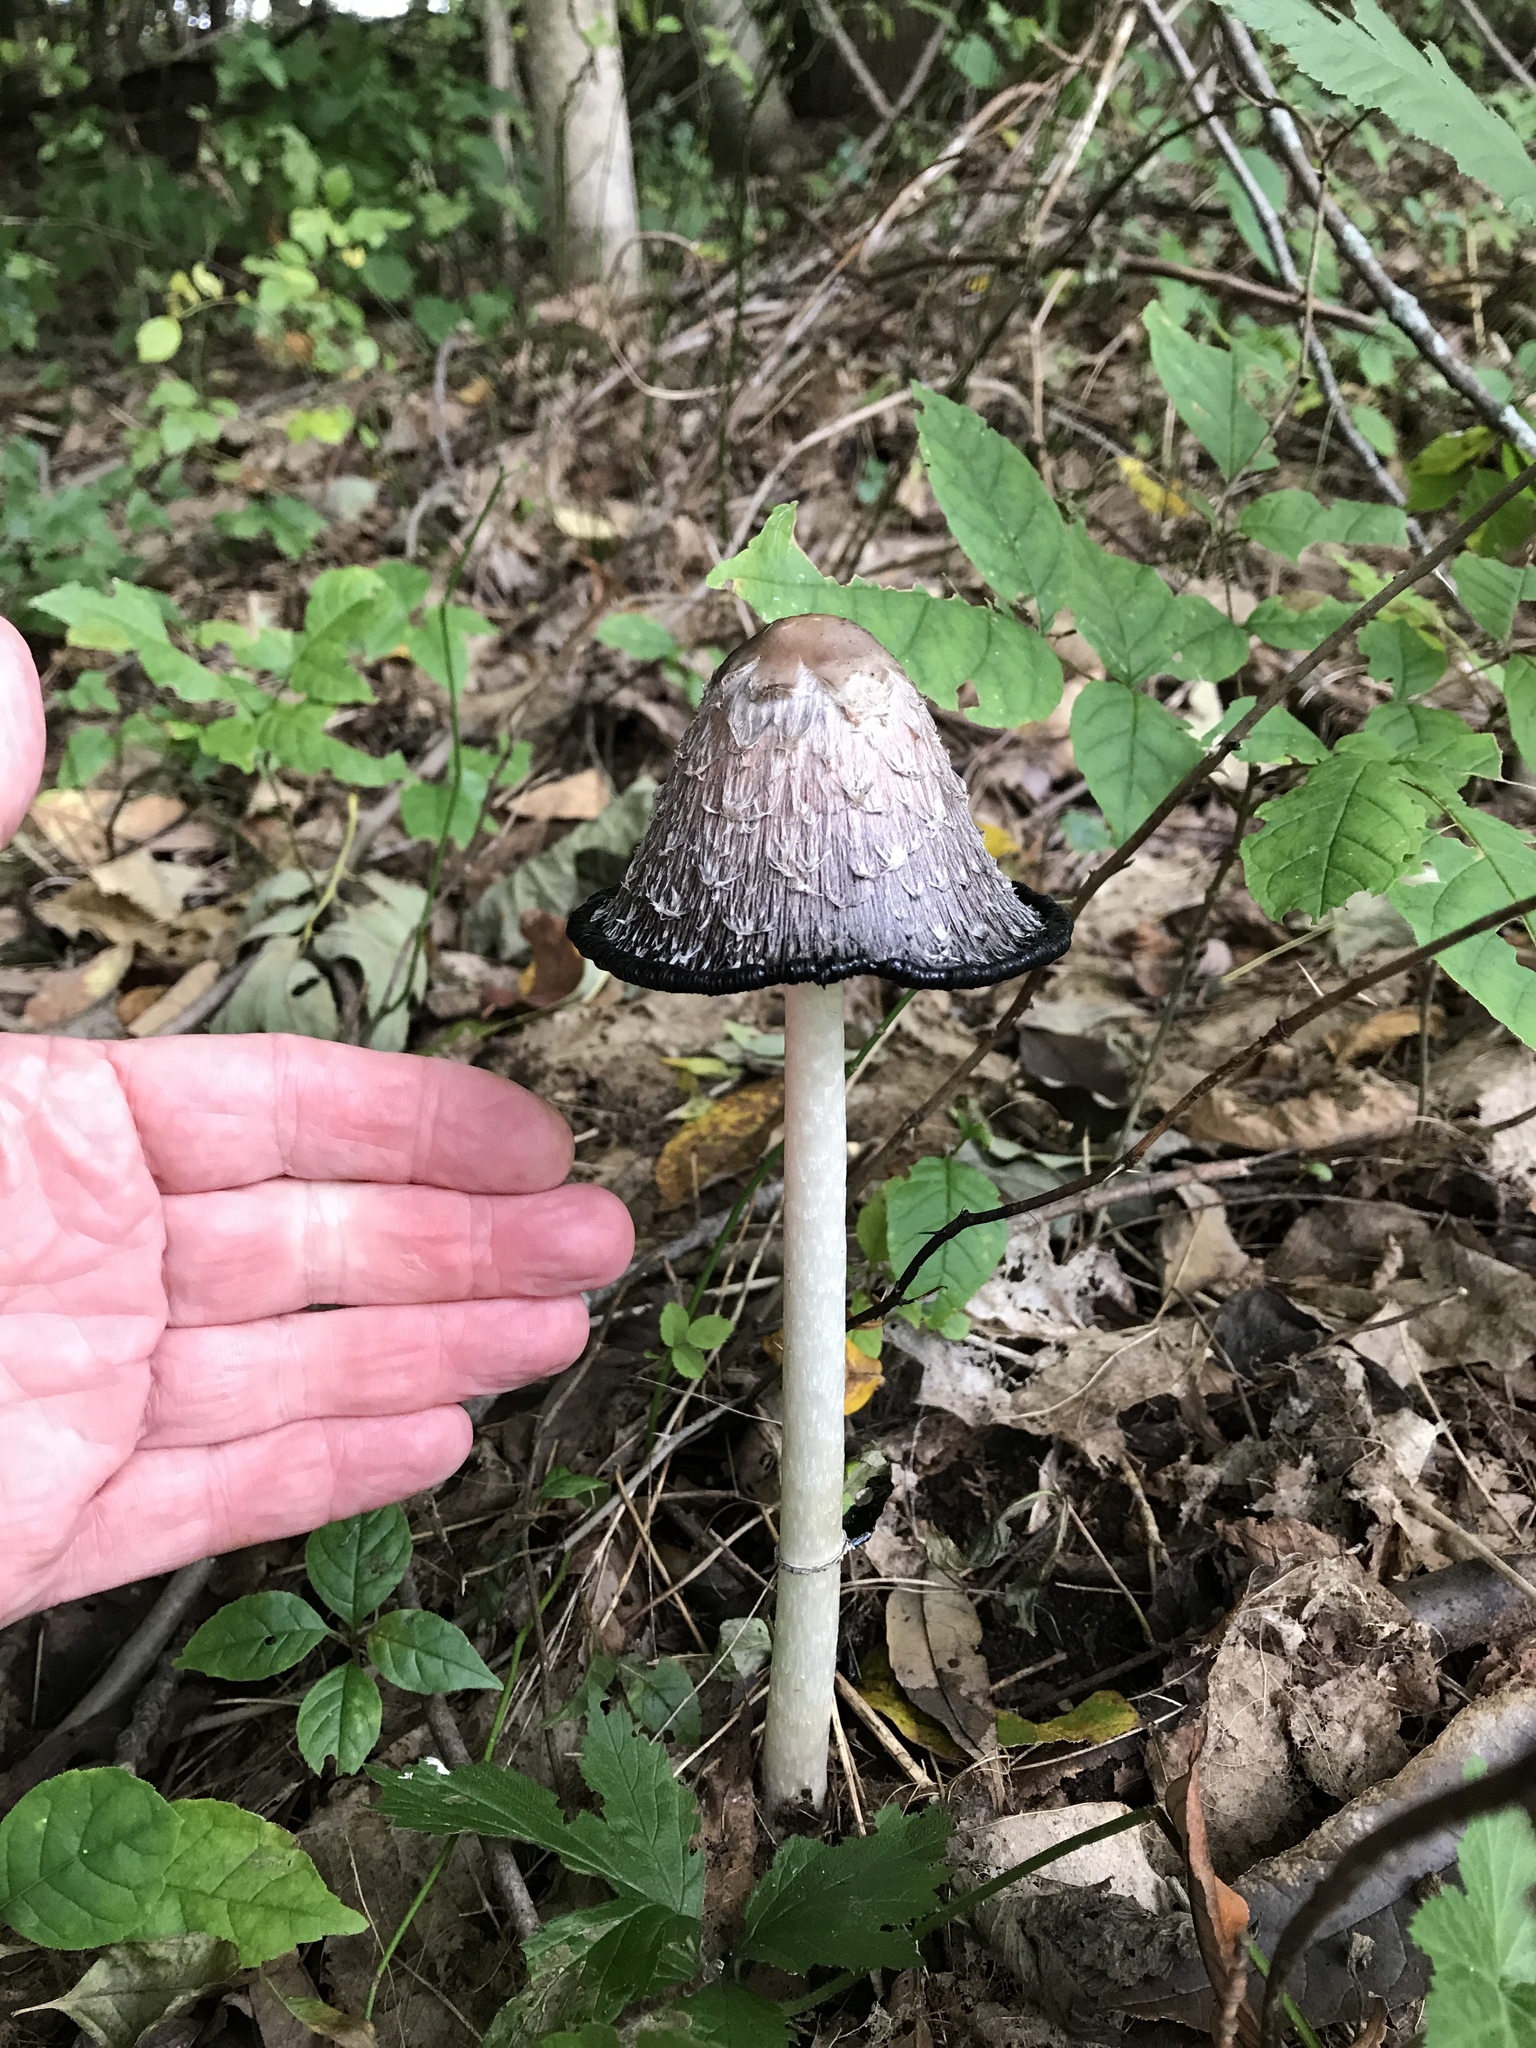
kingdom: Fungi
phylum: Basidiomycota
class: Agaricomycetes
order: Agaricales
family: Agaricaceae
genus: Coprinus
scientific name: Coprinus comatus
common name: Lawyer's wig
